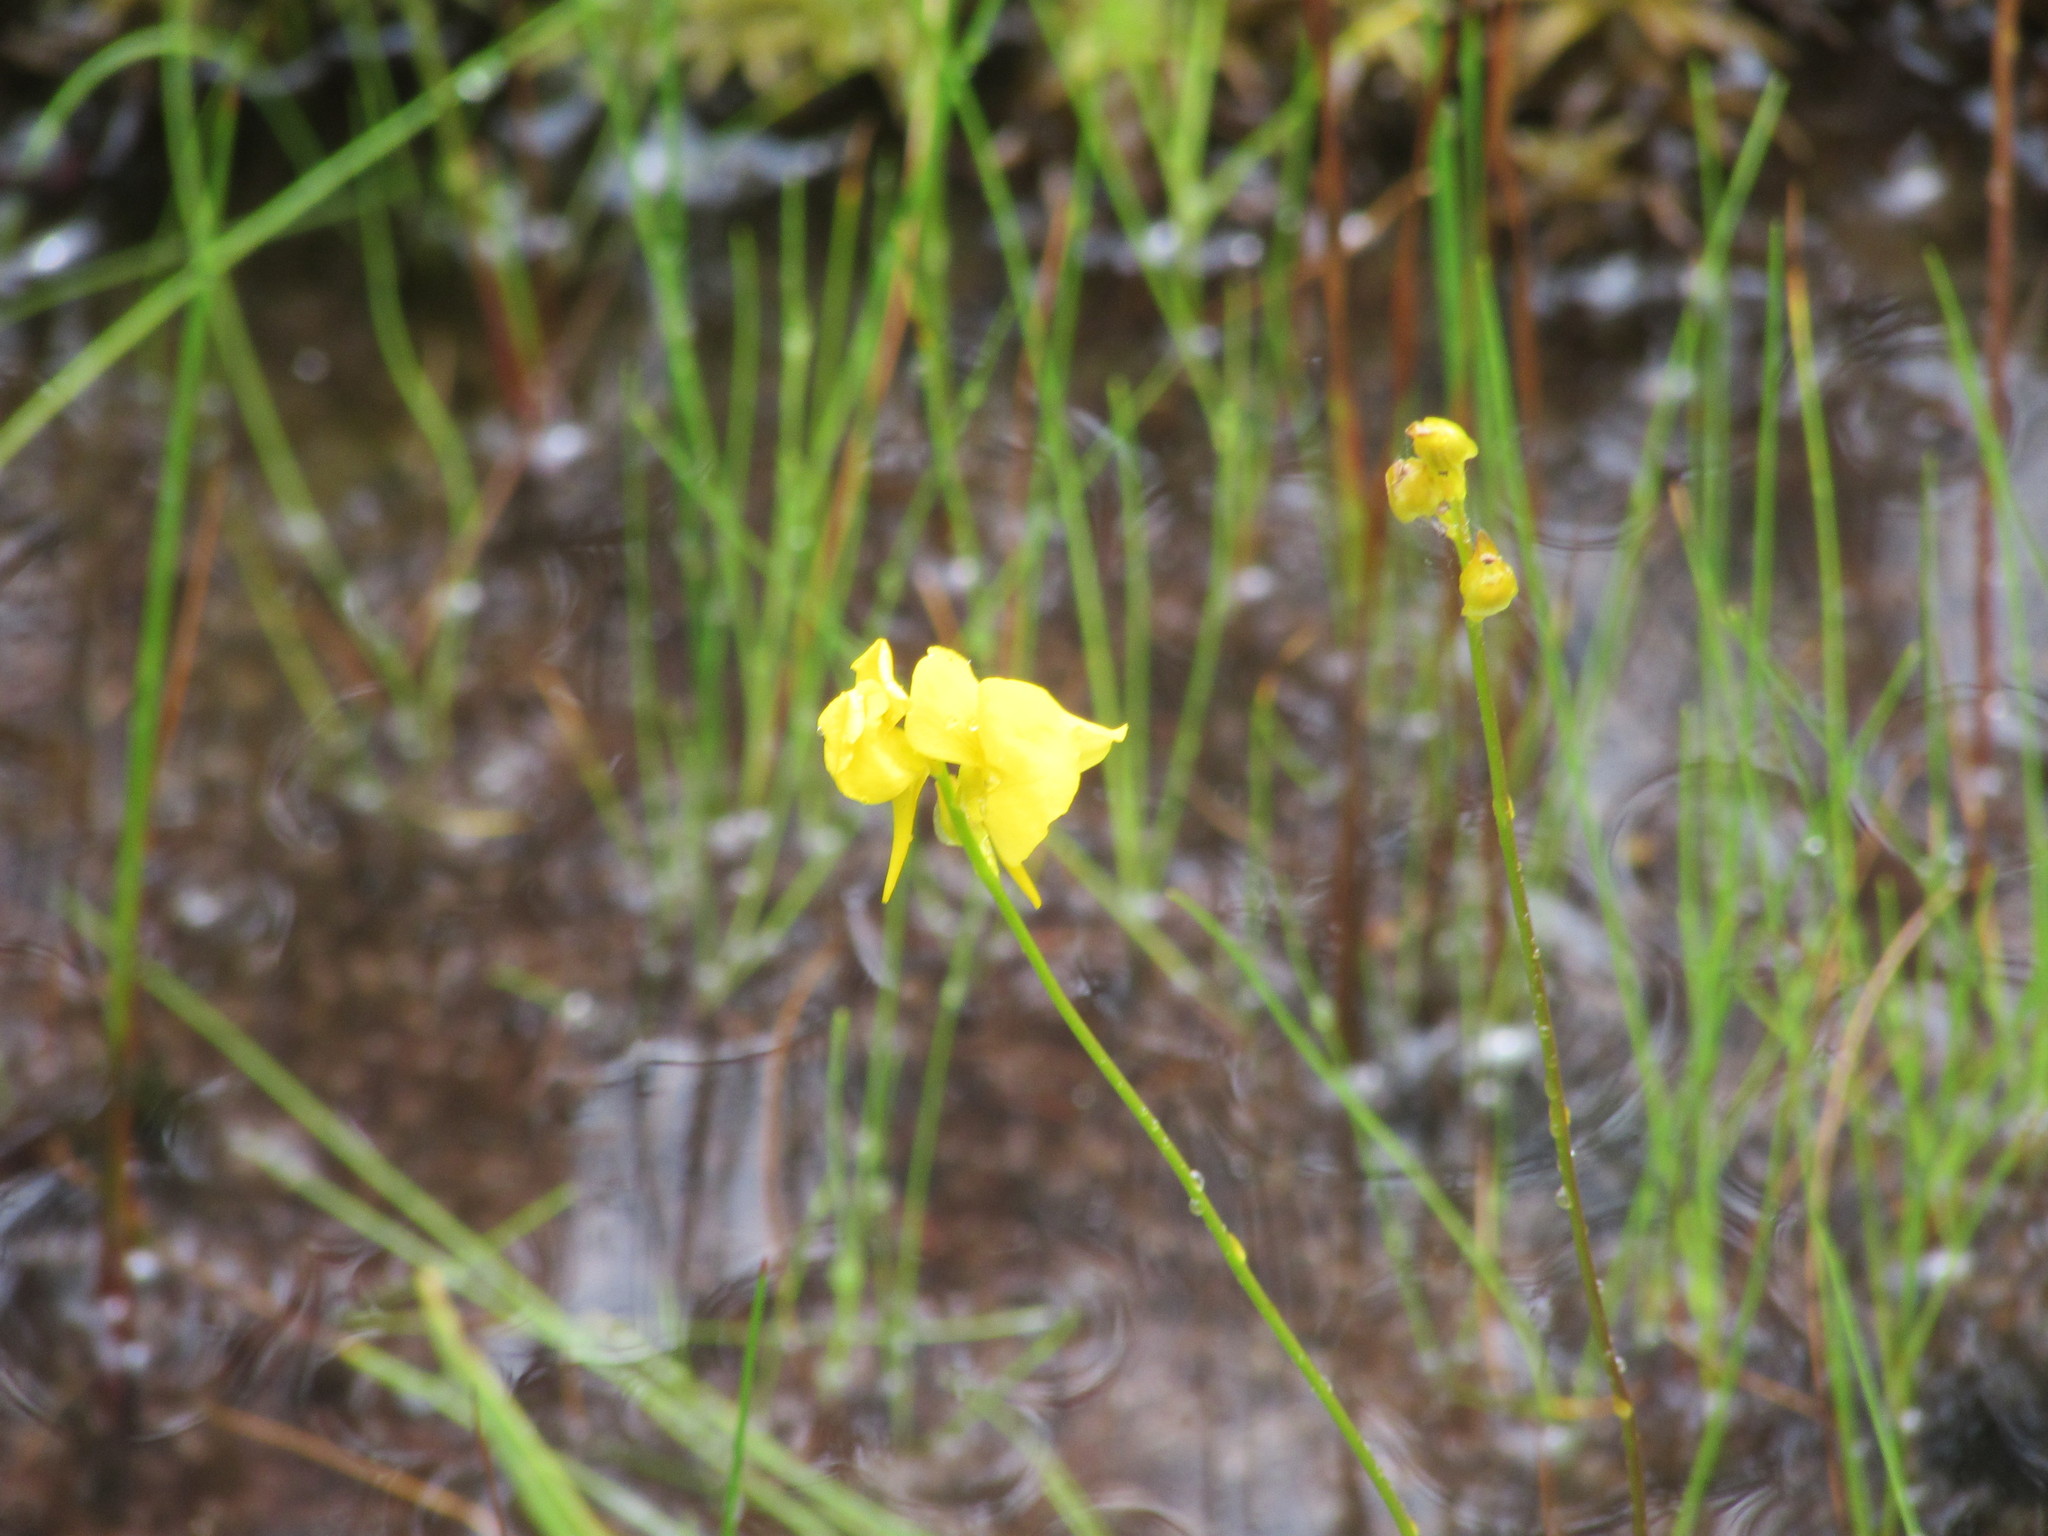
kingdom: Plantae
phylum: Tracheophyta
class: Magnoliopsida
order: Lamiales
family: Lentibulariaceae
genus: Utricularia
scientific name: Utricularia cornuta
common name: Horned bladderwort
